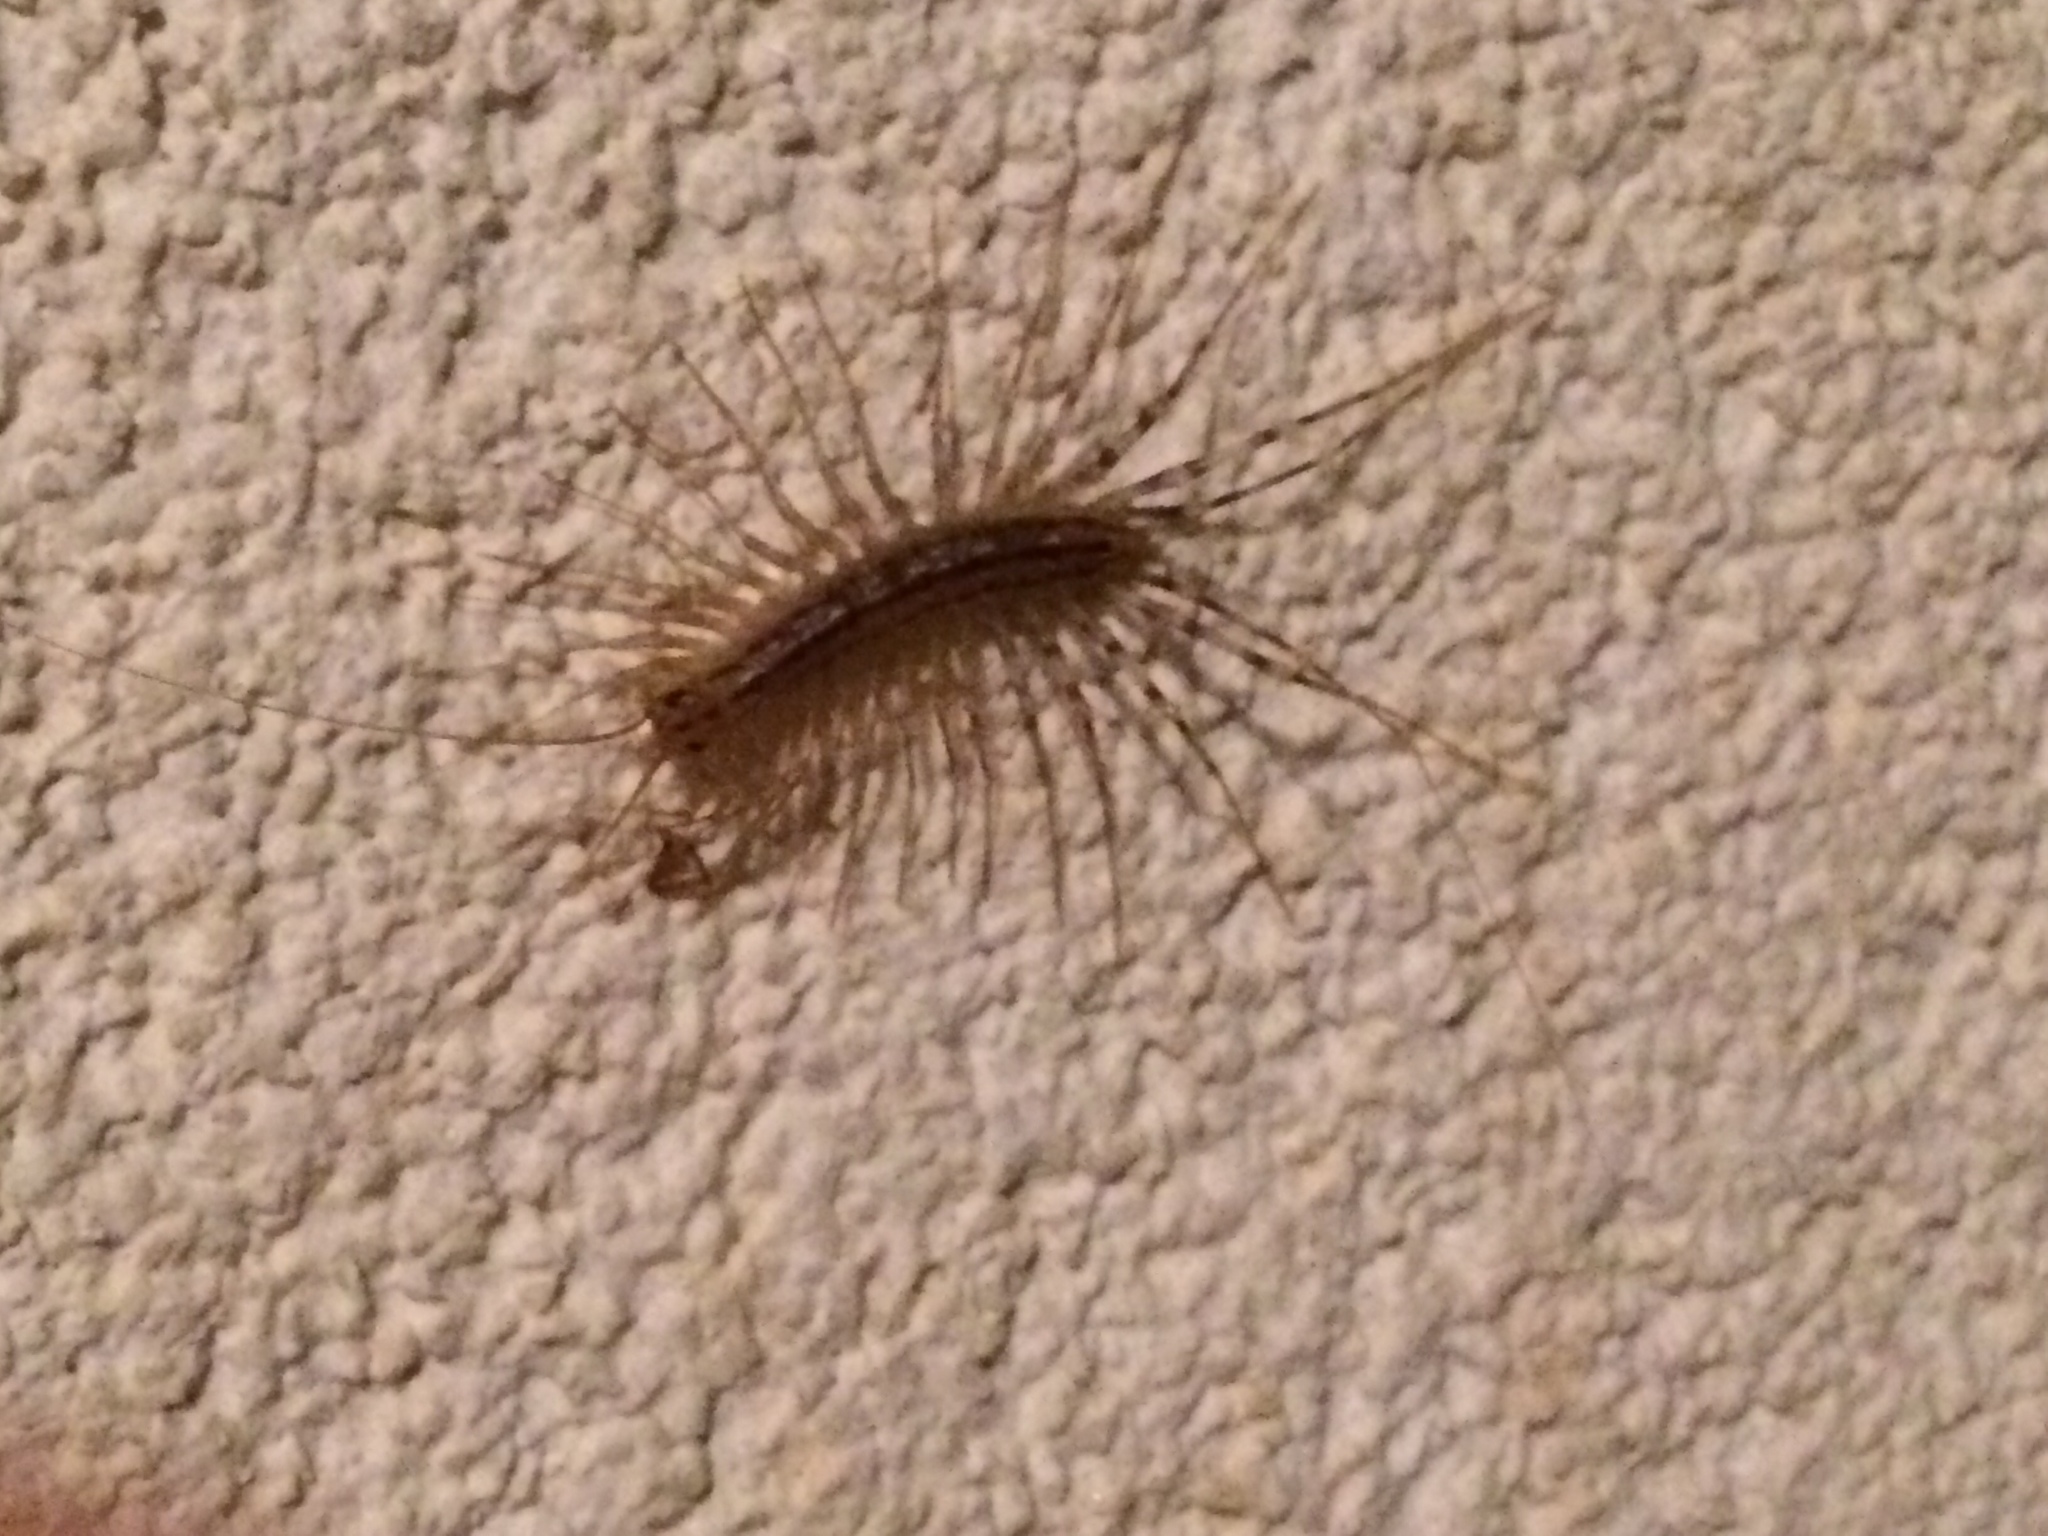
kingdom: Animalia
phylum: Arthropoda
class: Chilopoda
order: Scutigeromorpha
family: Scutigeridae
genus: Scutigera
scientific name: Scutigera coleoptrata
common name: House centipede
